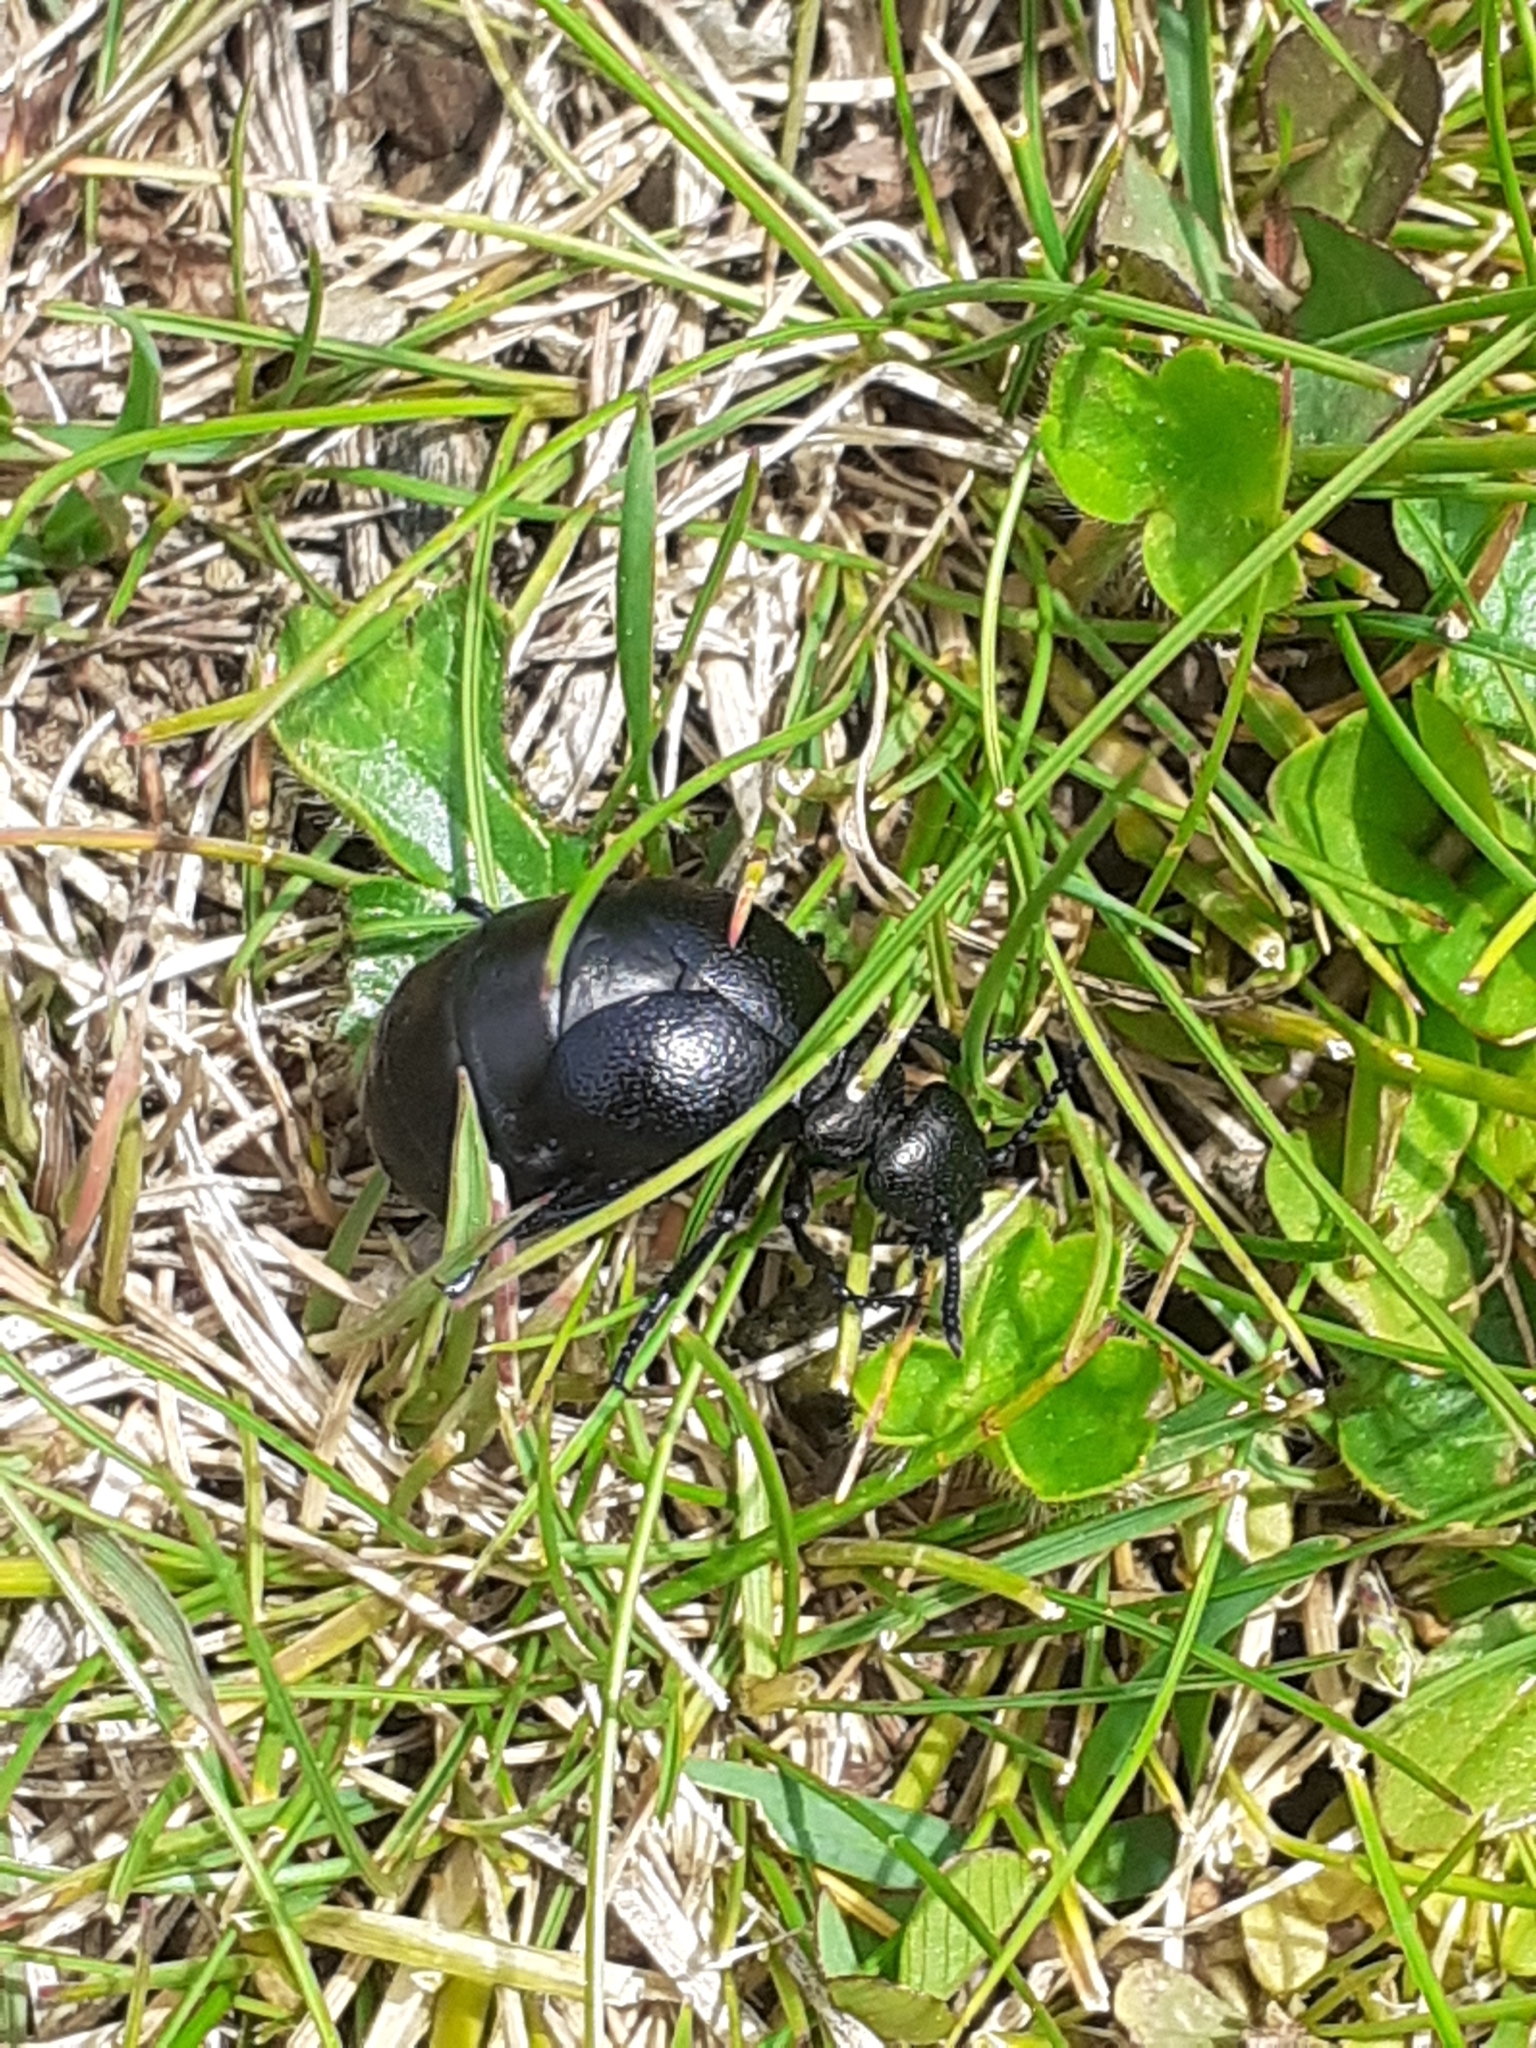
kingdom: Animalia
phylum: Arthropoda
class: Insecta
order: Coleoptera
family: Meloidae
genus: Meloe
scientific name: Meloe brevicollis
